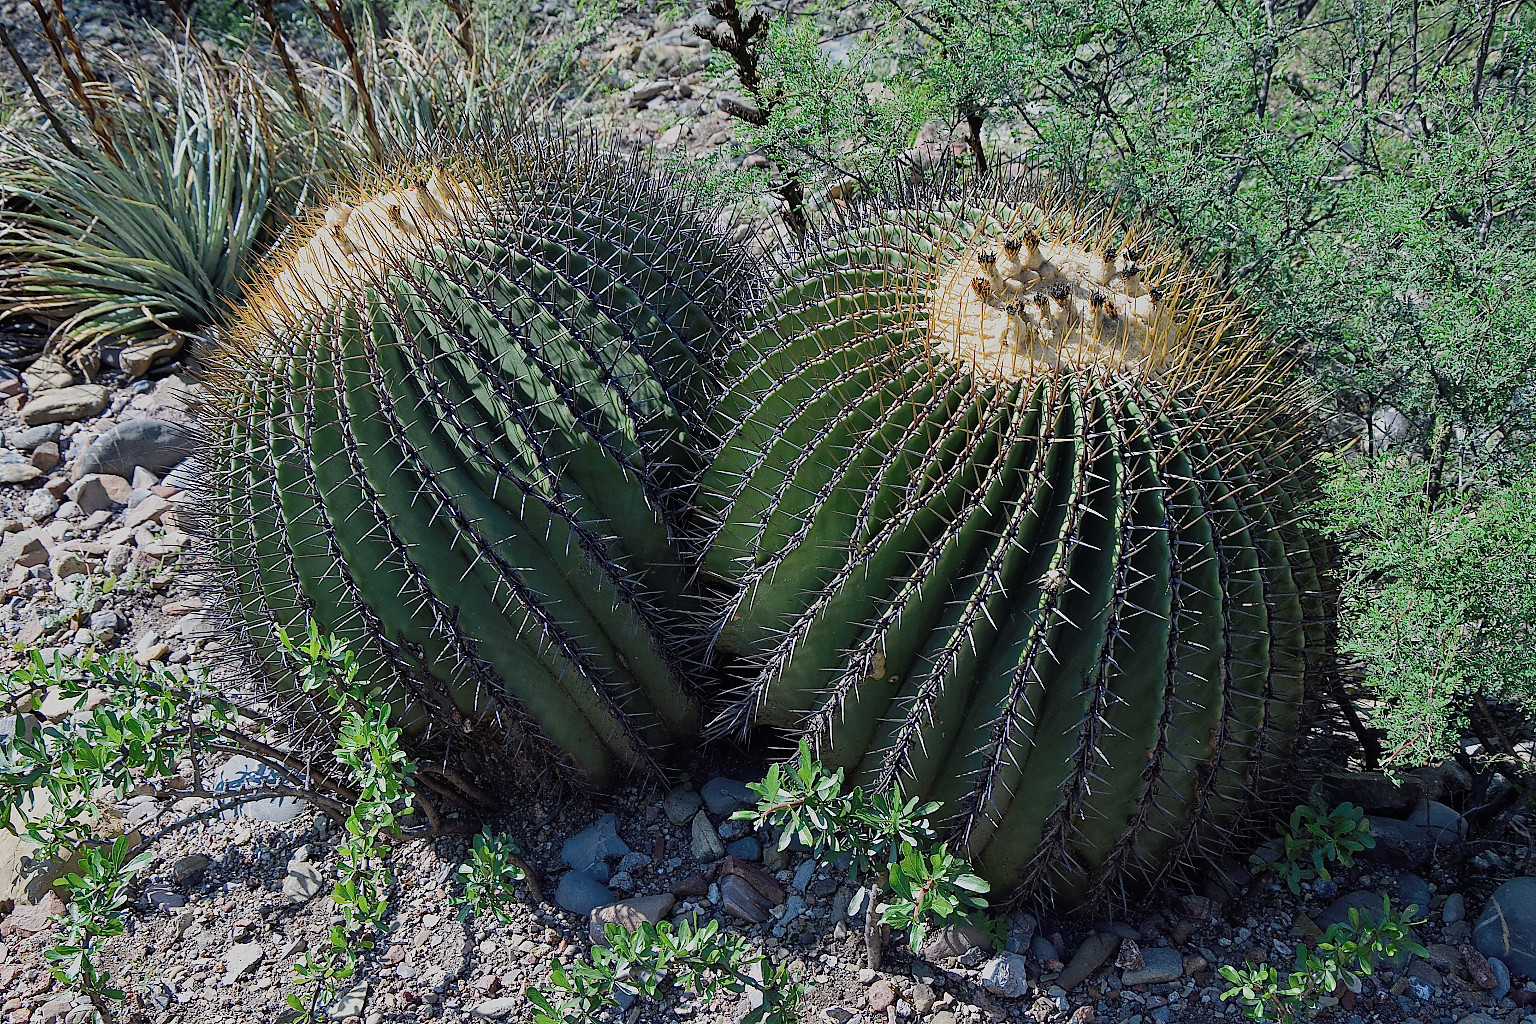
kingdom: Plantae
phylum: Tracheophyta
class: Magnoliopsida
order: Caryophyllales
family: Cactaceae
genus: Echinocactus
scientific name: Echinocactus platyacanthus
